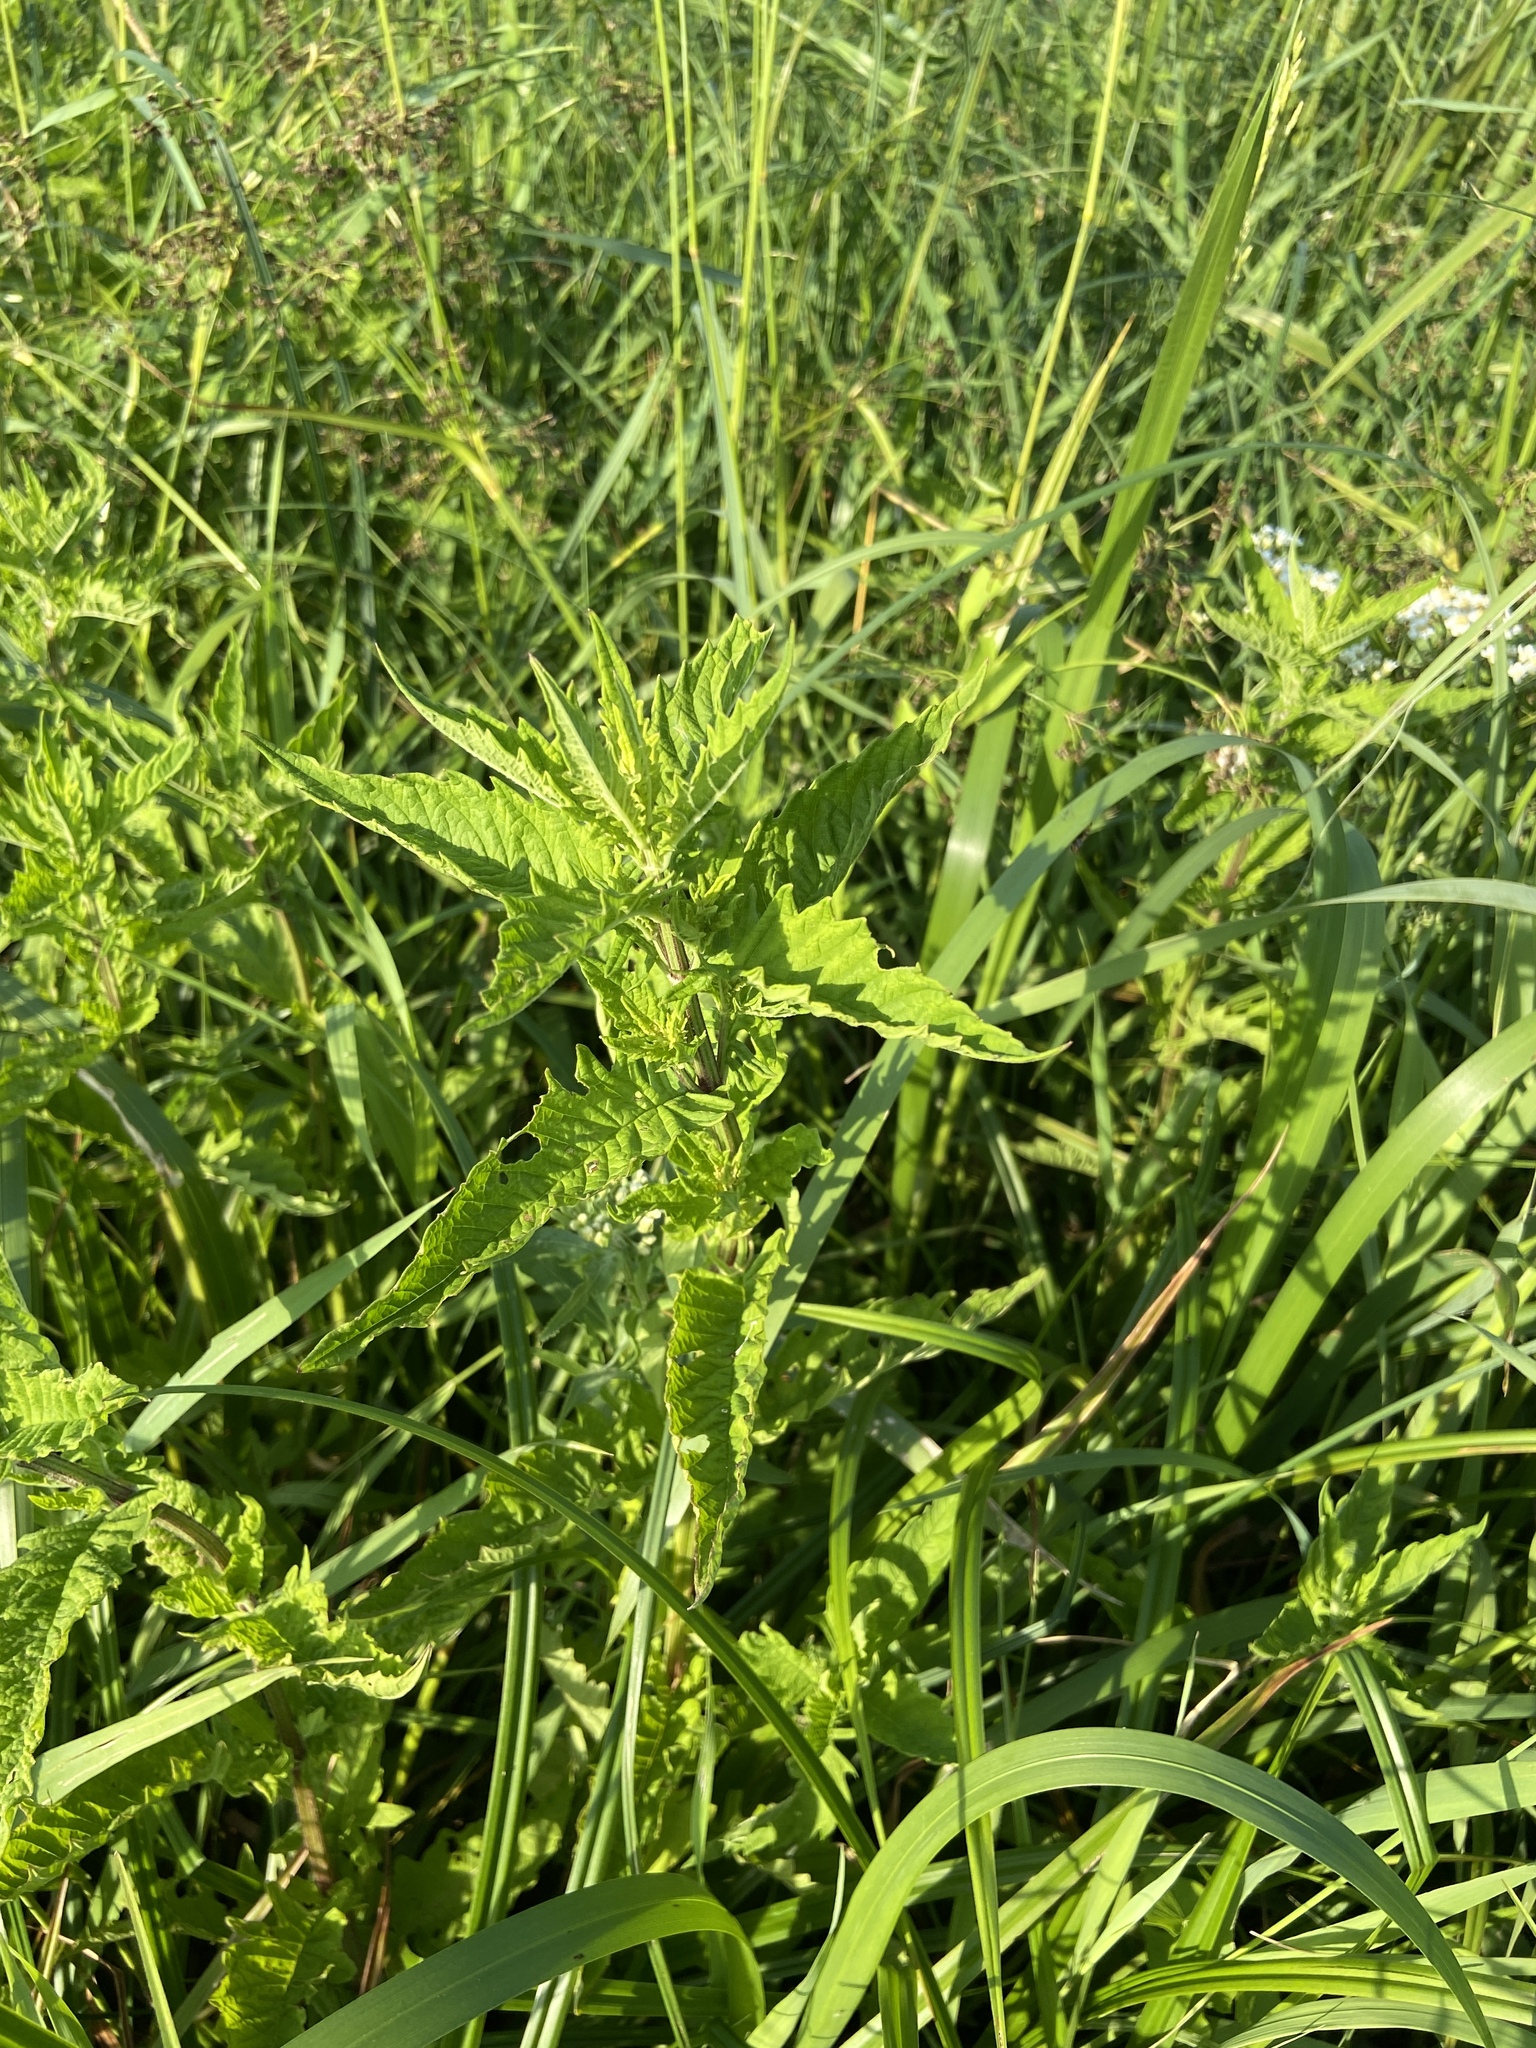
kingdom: Plantae
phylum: Tracheophyta
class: Magnoliopsida
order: Lamiales
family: Lamiaceae
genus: Lycopus
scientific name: Lycopus europaeus
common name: European bugleweed
